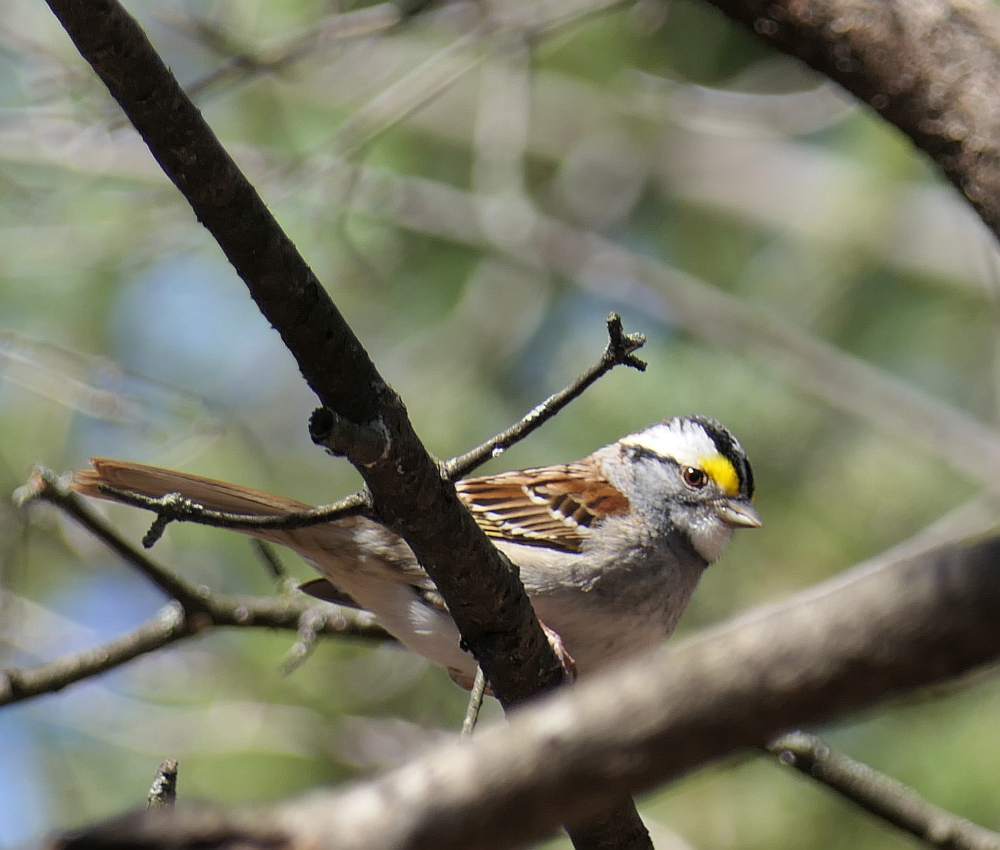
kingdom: Animalia
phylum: Chordata
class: Aves
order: Passeriformes
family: Passerellidae
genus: Zonotrichia
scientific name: Zonotrichia albicollis
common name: White-throated sparrow
